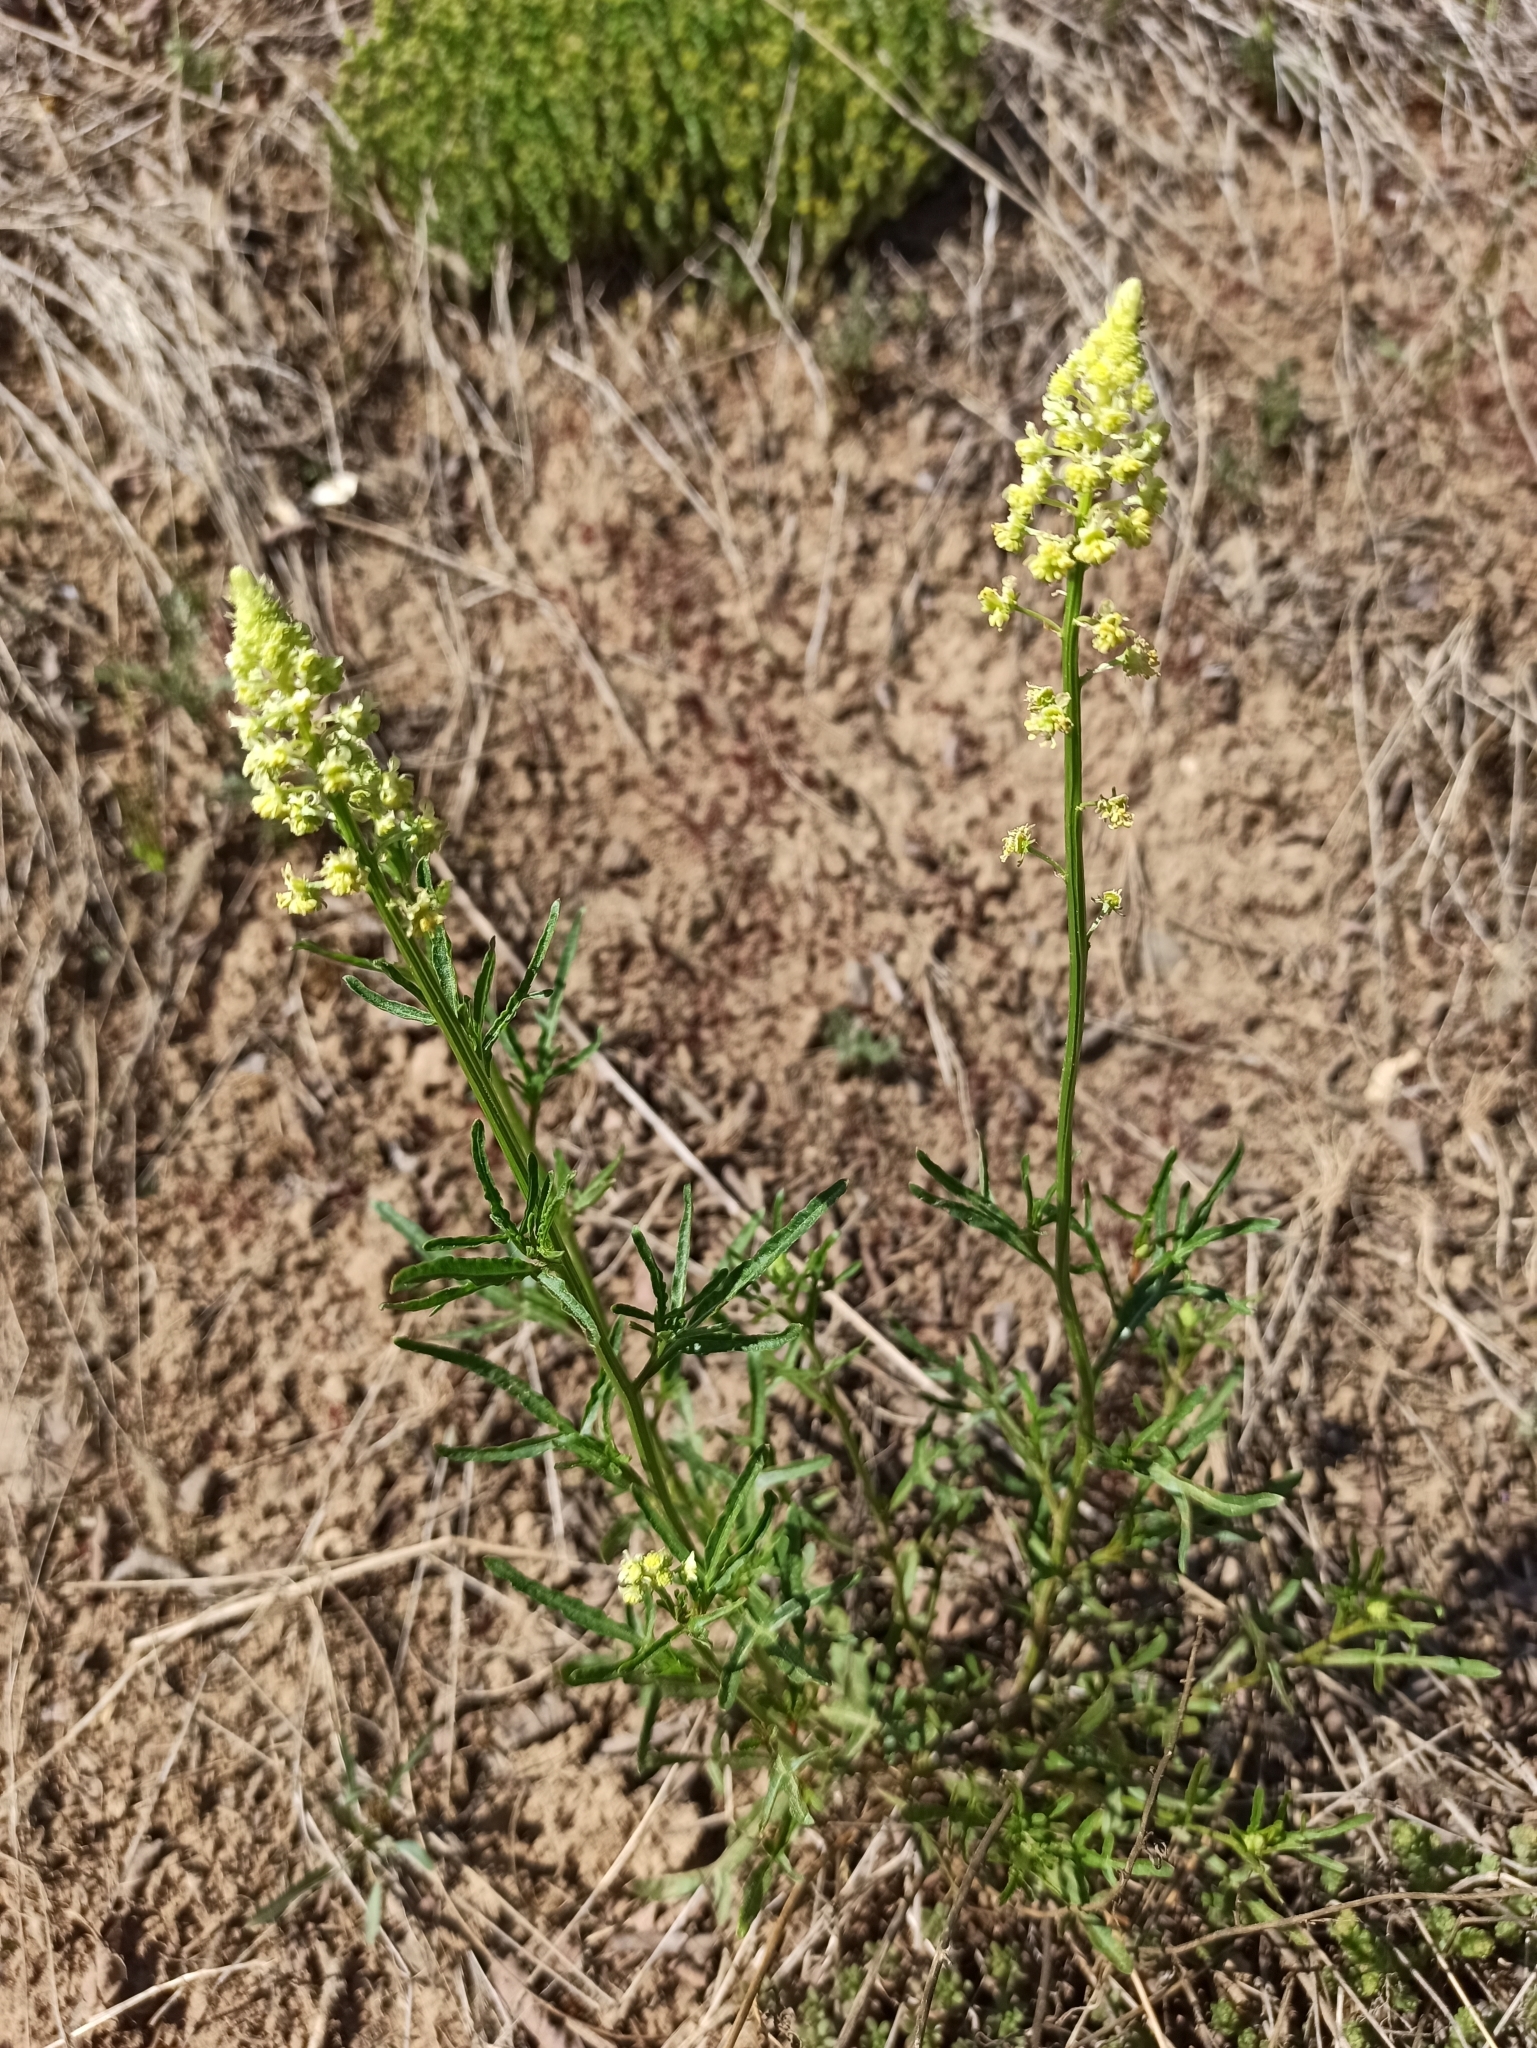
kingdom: Plantae
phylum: Tracheophyta
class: Magnoliopsida
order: Brassicales
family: Resedaceae
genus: Reseda
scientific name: Reseda lutea
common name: Wild mignonette
